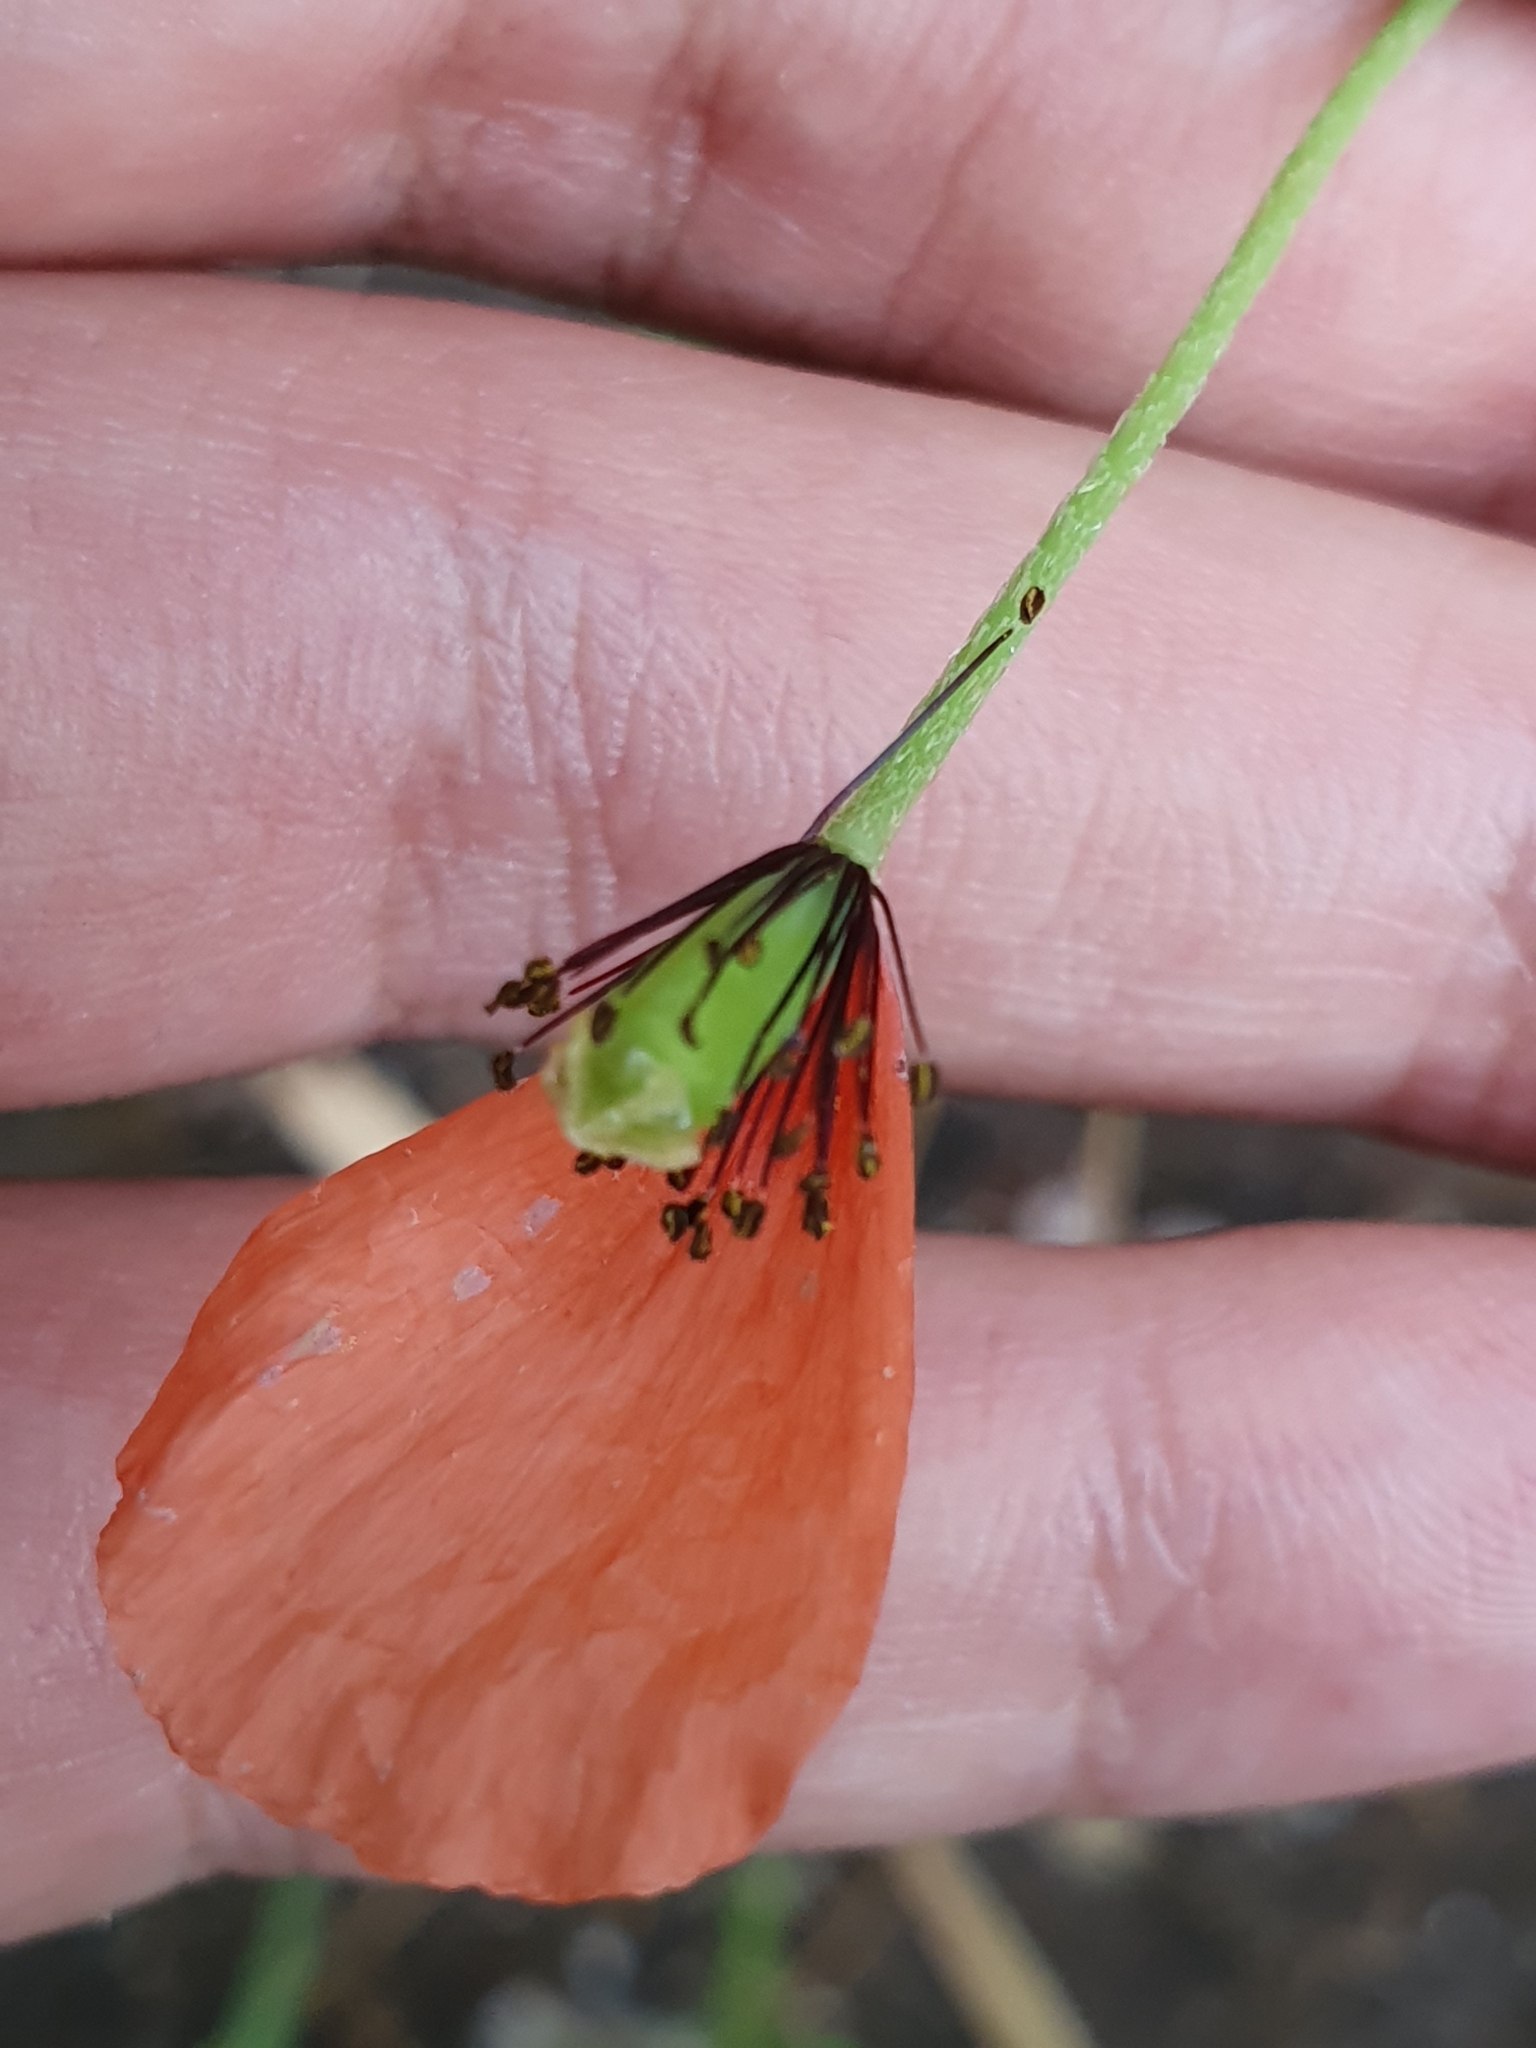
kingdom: Plantae
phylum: Tracheophyta
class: Magnoliopsida
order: Ranunculales
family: Papaveraceae
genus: Papaver
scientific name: Papaver dubium
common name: Long-headed poppy
